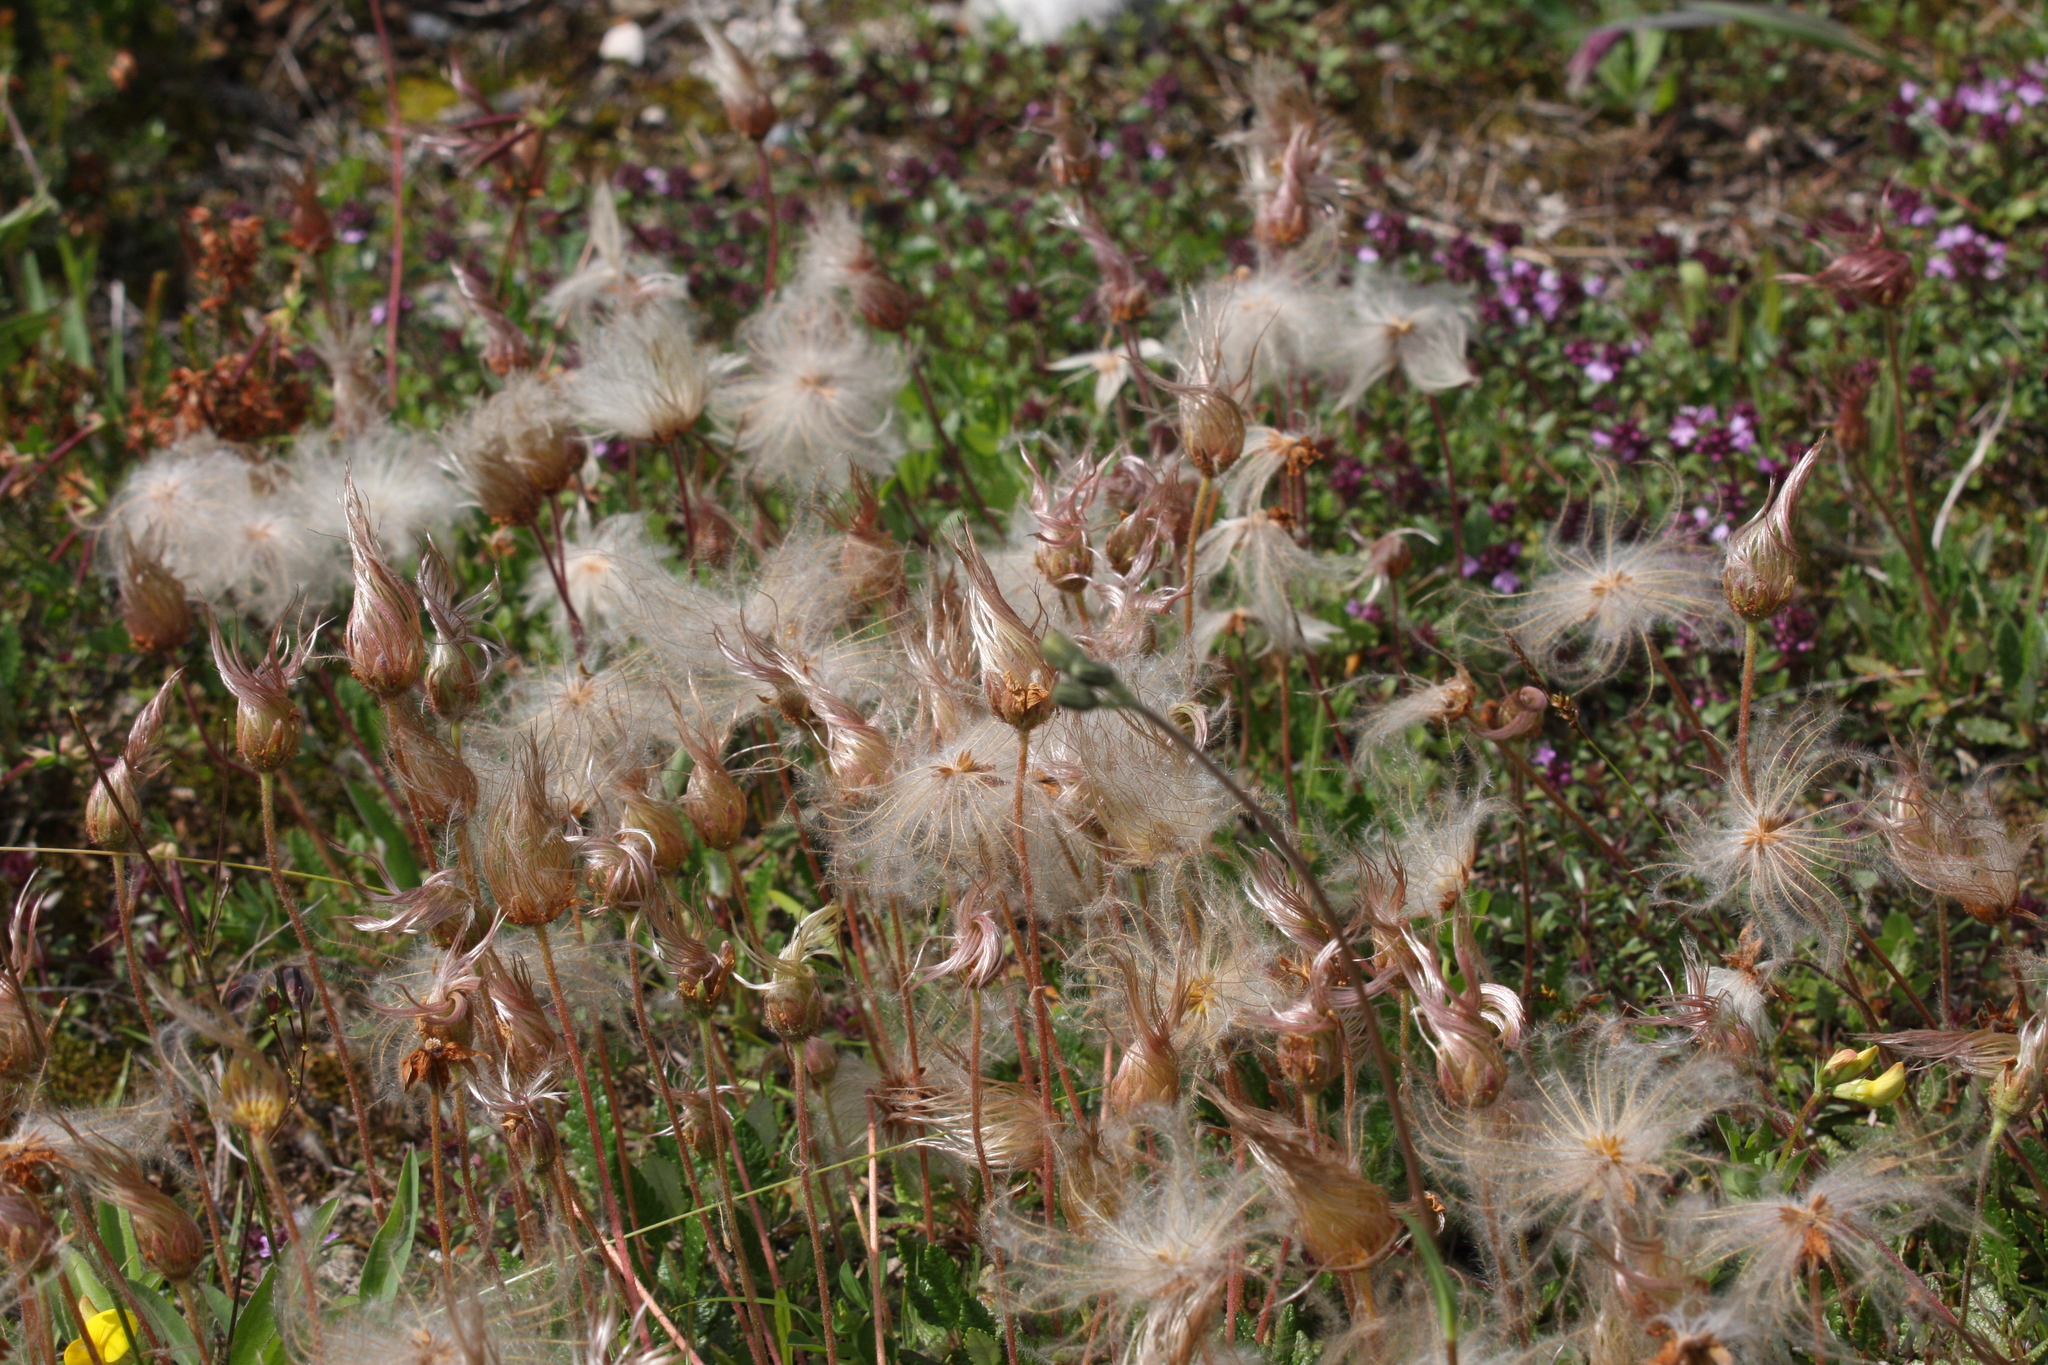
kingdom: Plantae
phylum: Tracheophyta
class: Magnoliopsida
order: Rosales
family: Rosaceae
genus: Dryas
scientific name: Dryas octopetala
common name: Eight-petal mountain-avens
